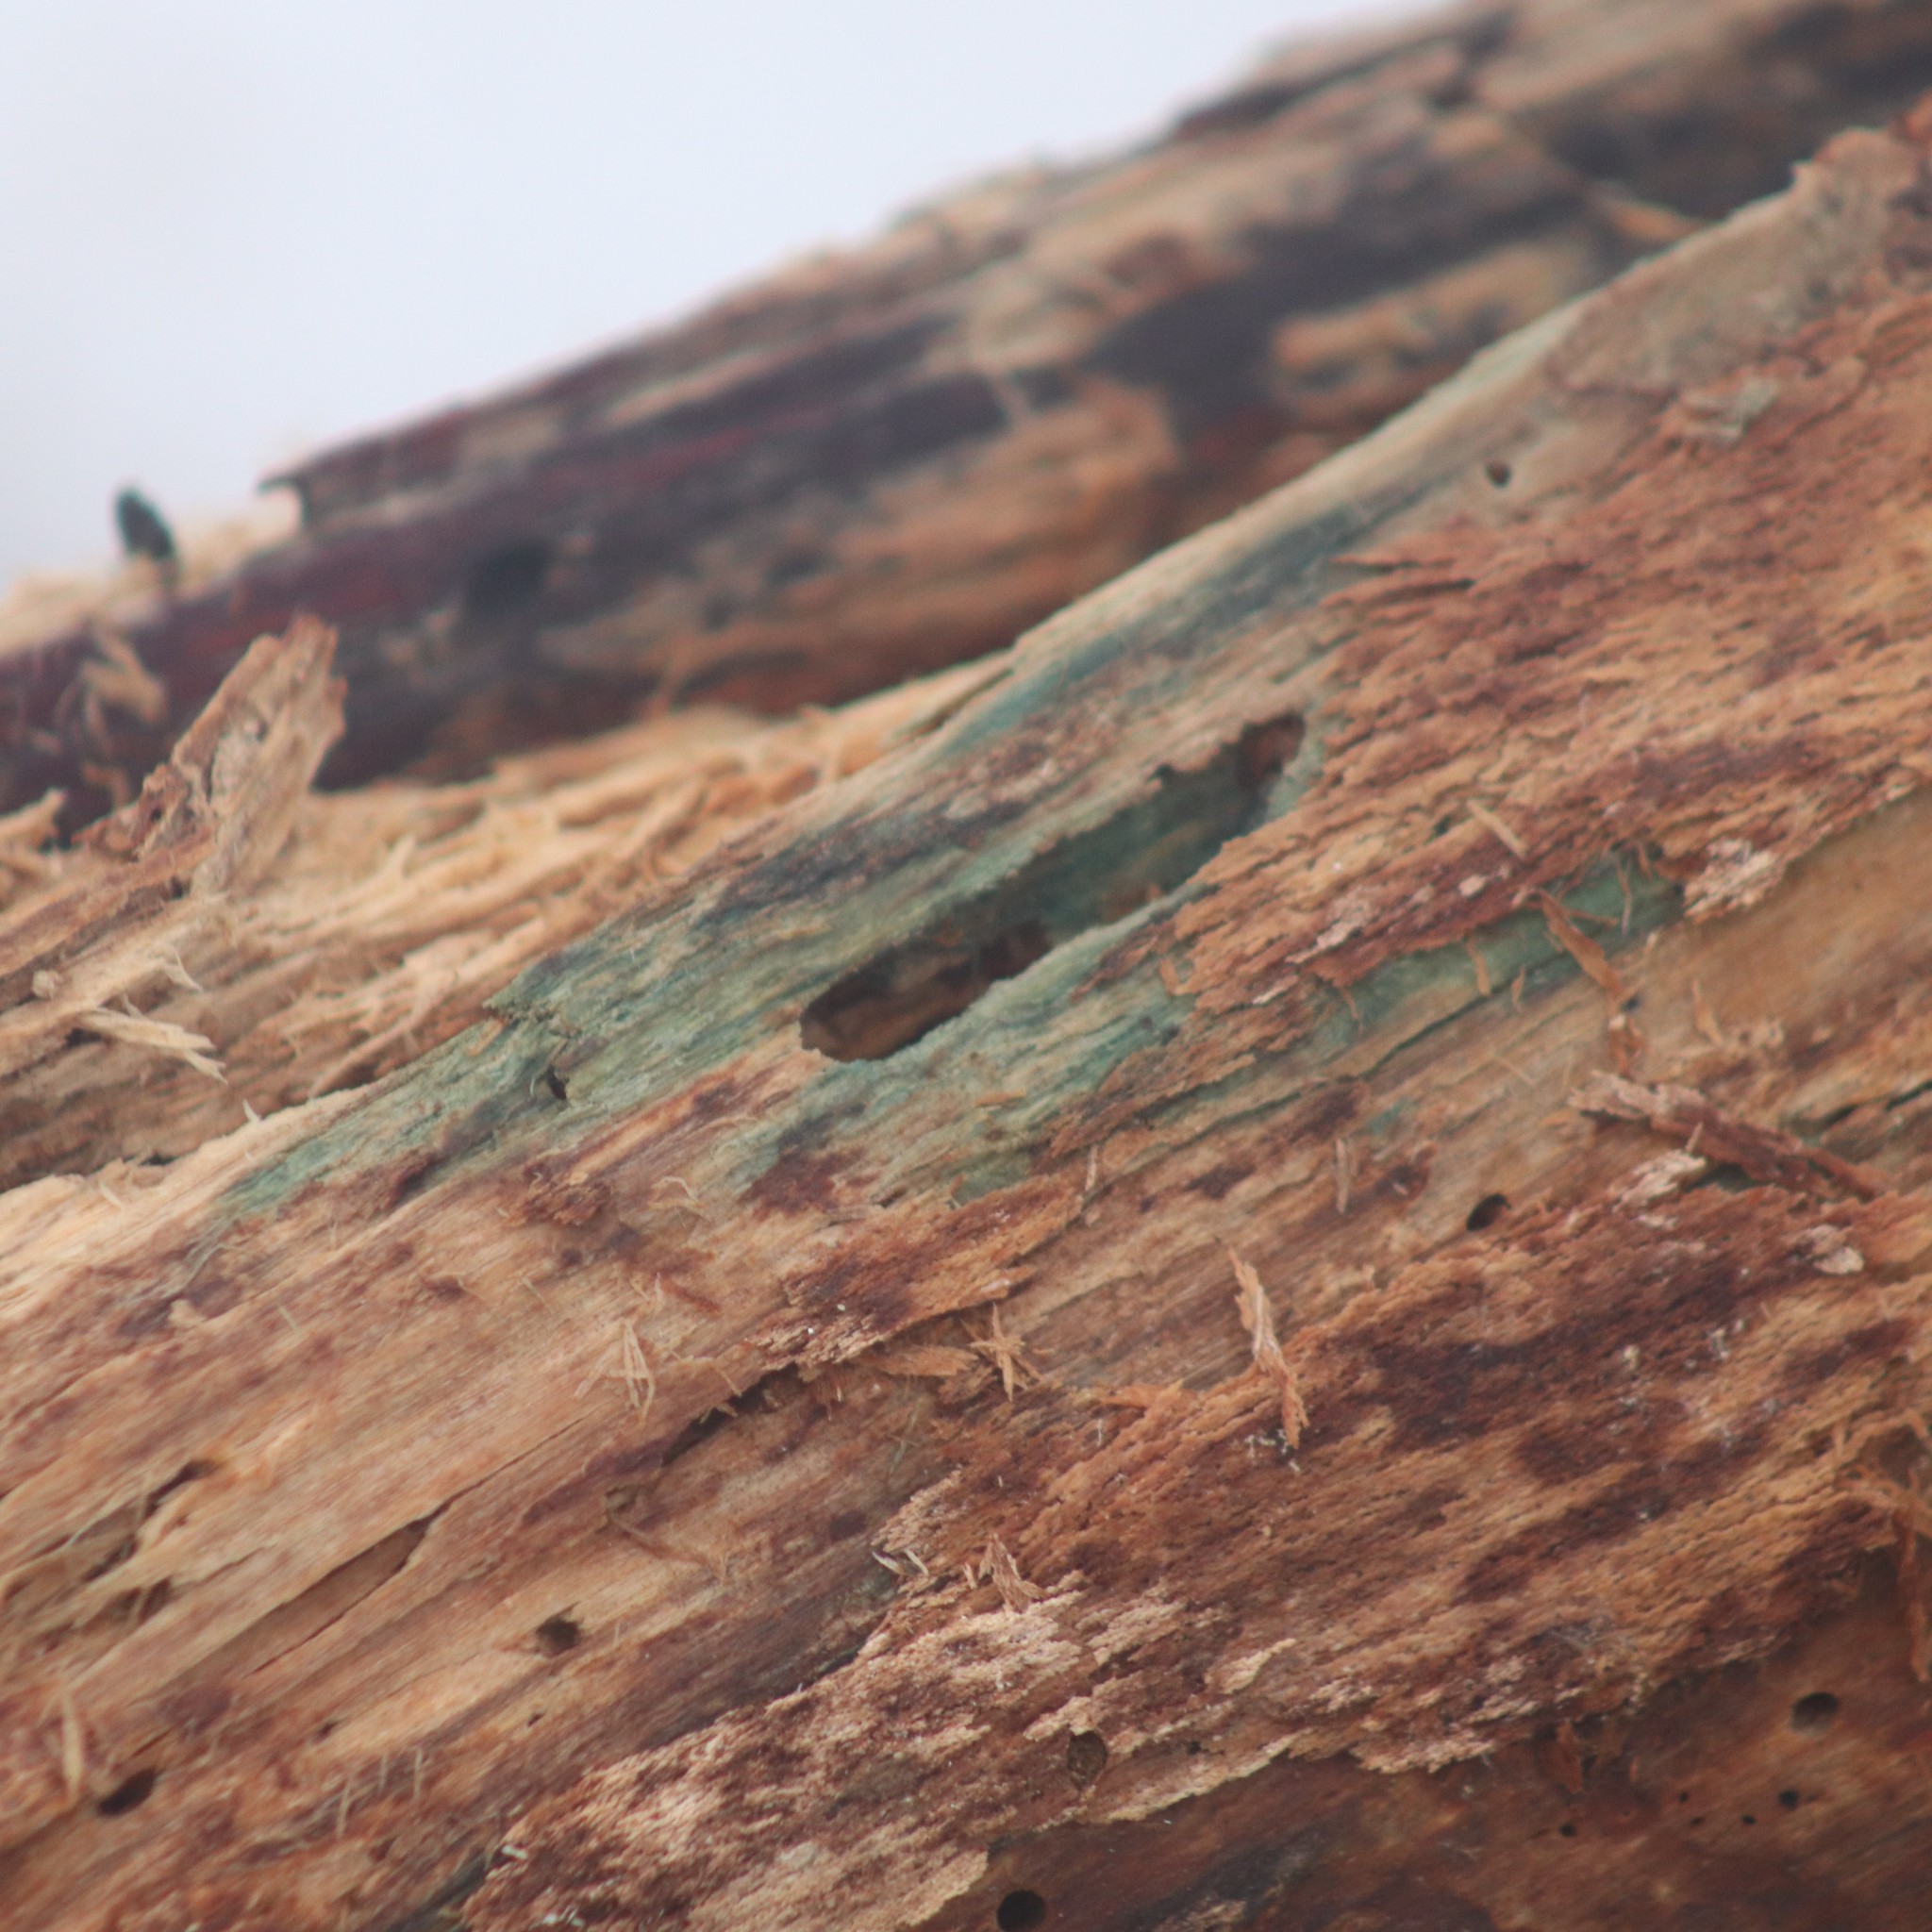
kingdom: Fungi
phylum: Ascomycota
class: Leotiomycetes
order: Helotiales
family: Chlorociboriaceae
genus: Chlorociboria
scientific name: Chlorociboria
